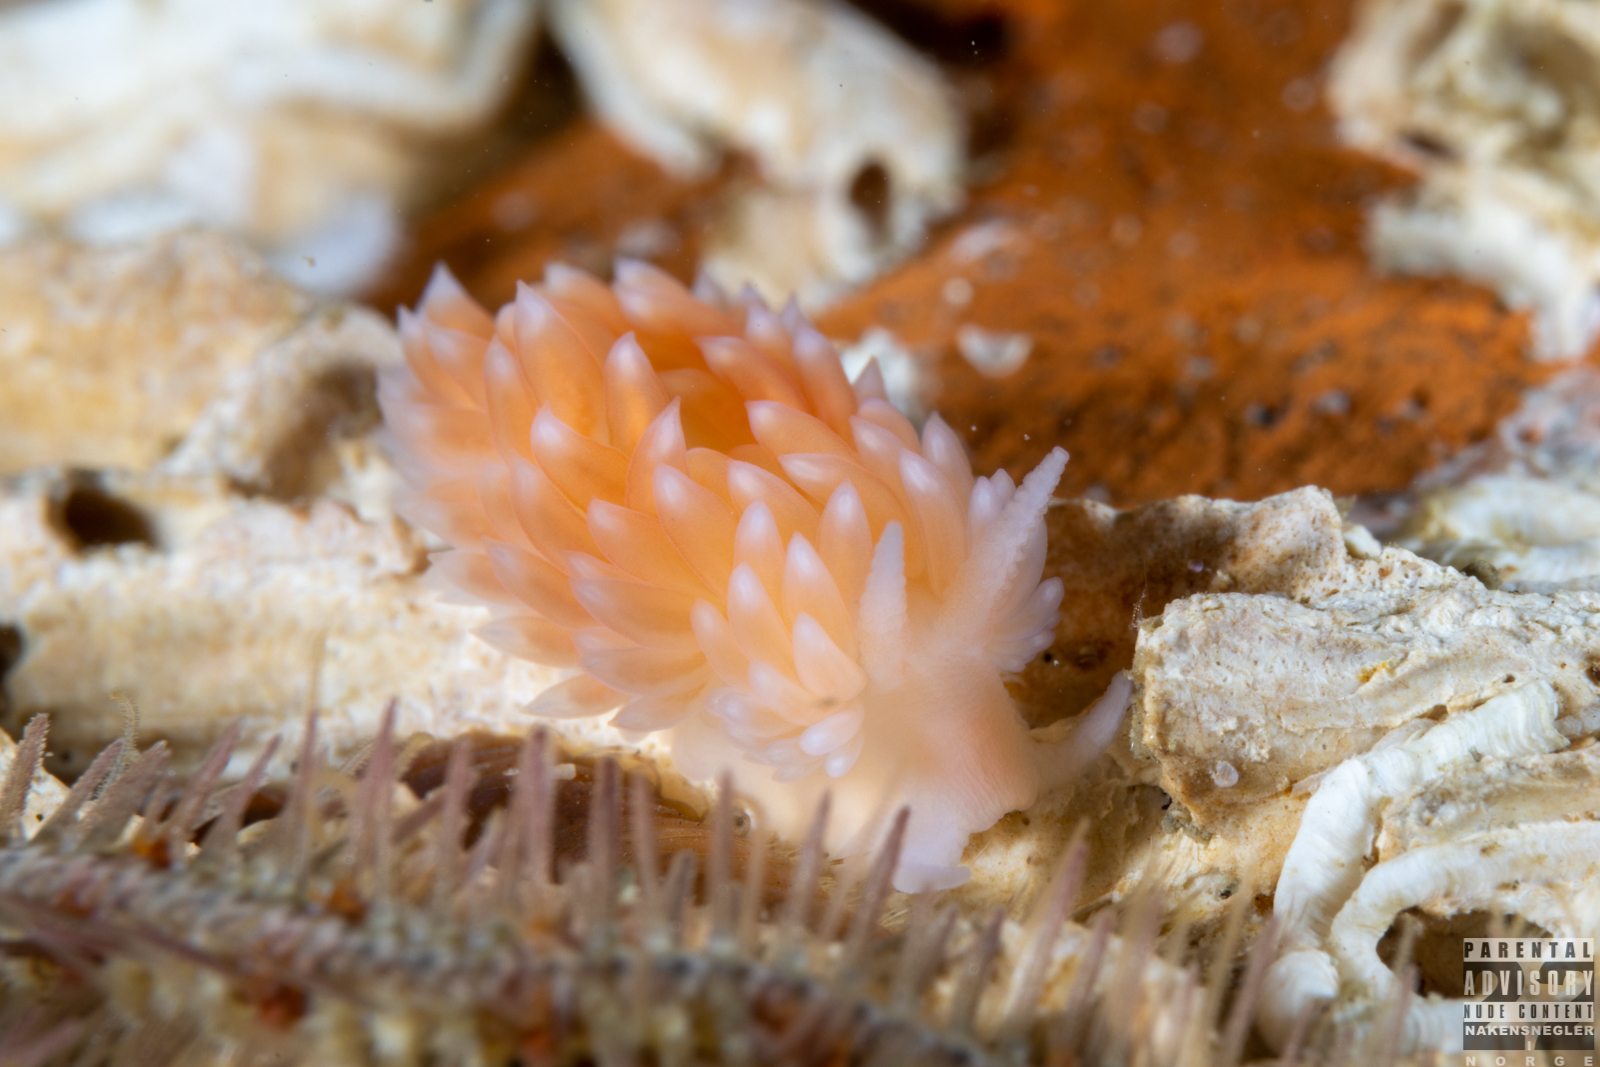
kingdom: Animalia
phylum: Mollusca
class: Gastropoda
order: Nudibranchia
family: Aeolidiidae
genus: Berghia
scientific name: Berghia norvegica
